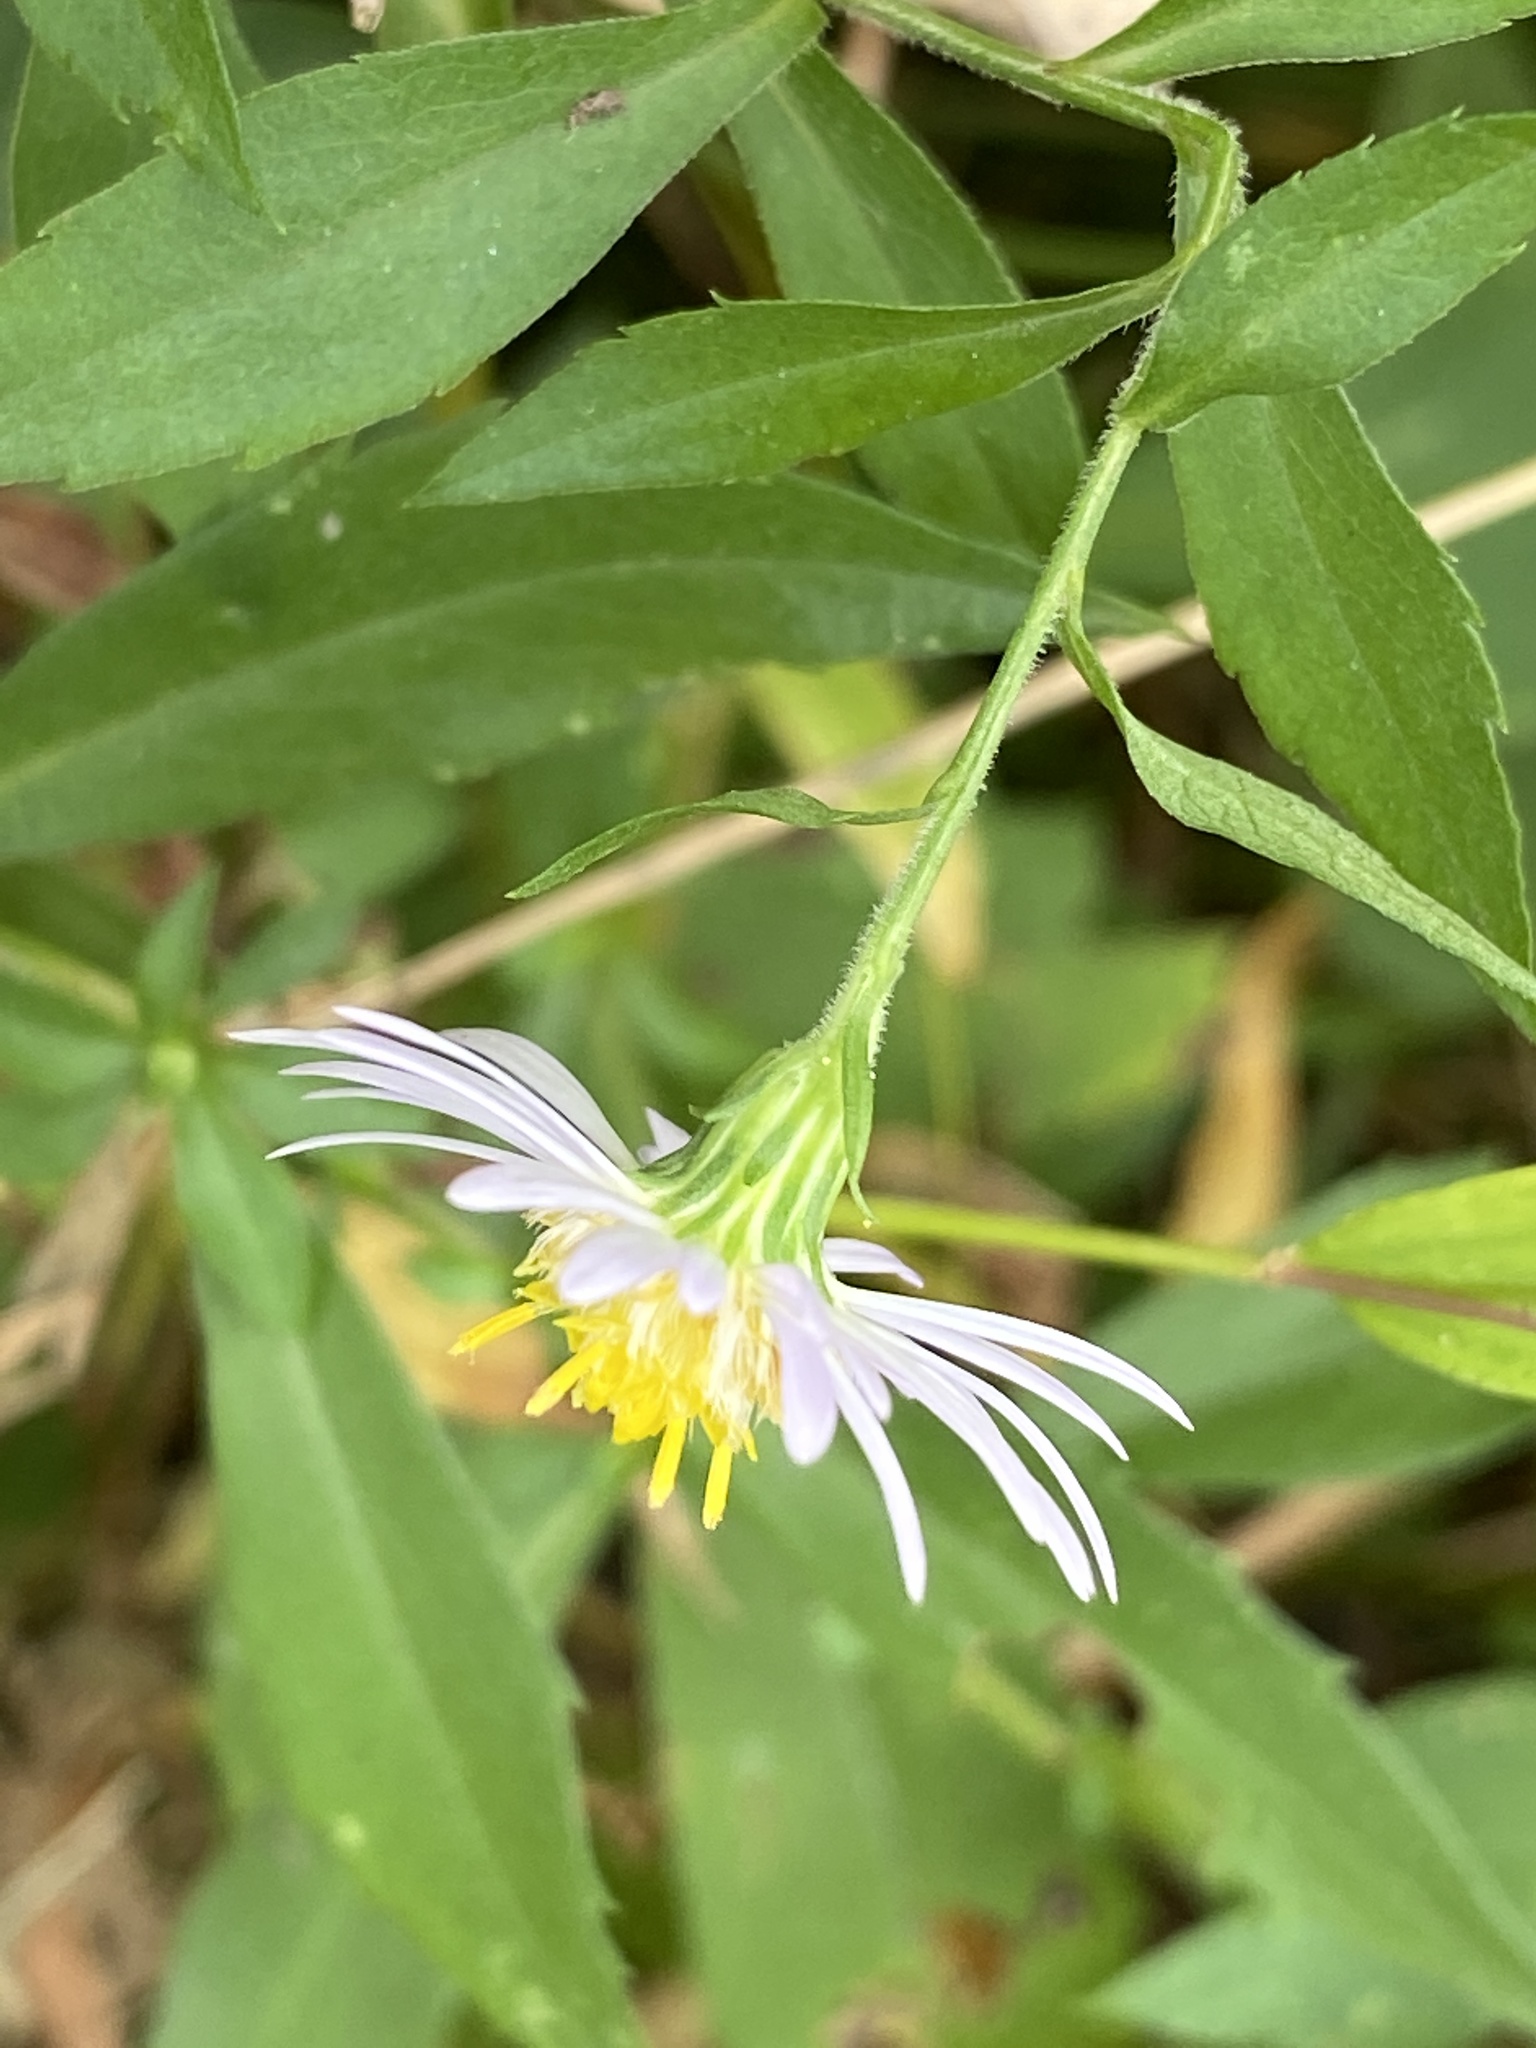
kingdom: Plantae
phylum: Tracheophyta
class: Magnoliopsida
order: Asterales
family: Asteraceae
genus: Symphyotrichum
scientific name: Symphyotrichum lanceolatum
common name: Panicled aster
